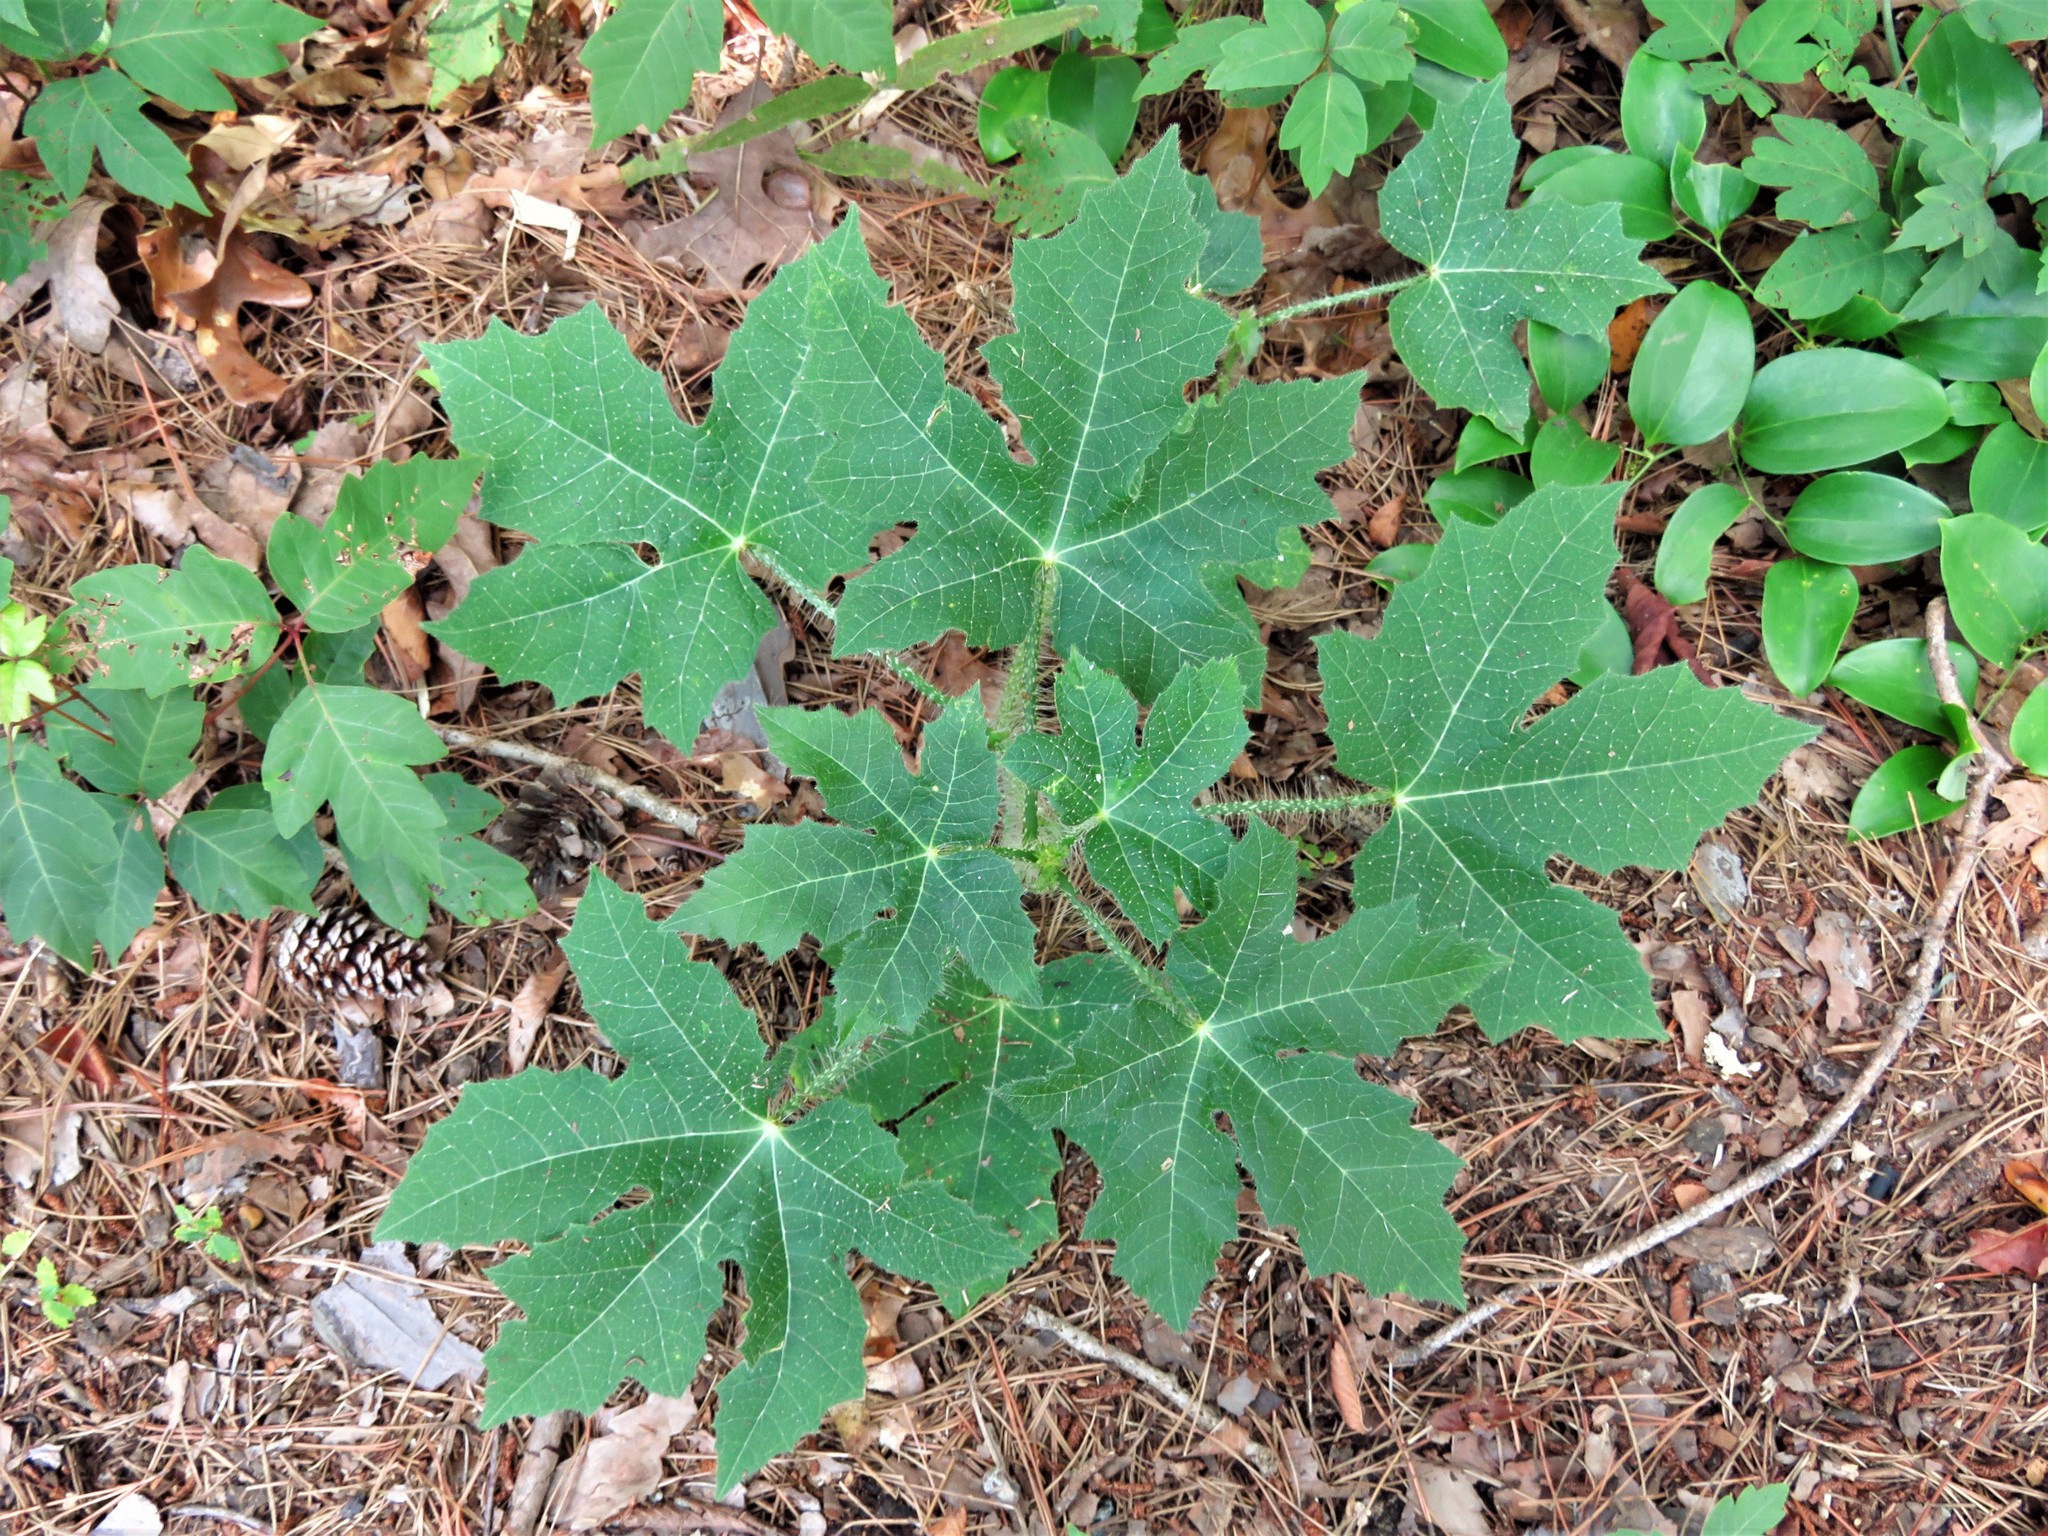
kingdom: Plantae
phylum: Tracheophyta
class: Magnoliopsida
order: Malpighiales
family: Euphorbiaceae
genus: Cnidoscolus
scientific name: Cnidoscolus texanus
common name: Texas bull-nettle
